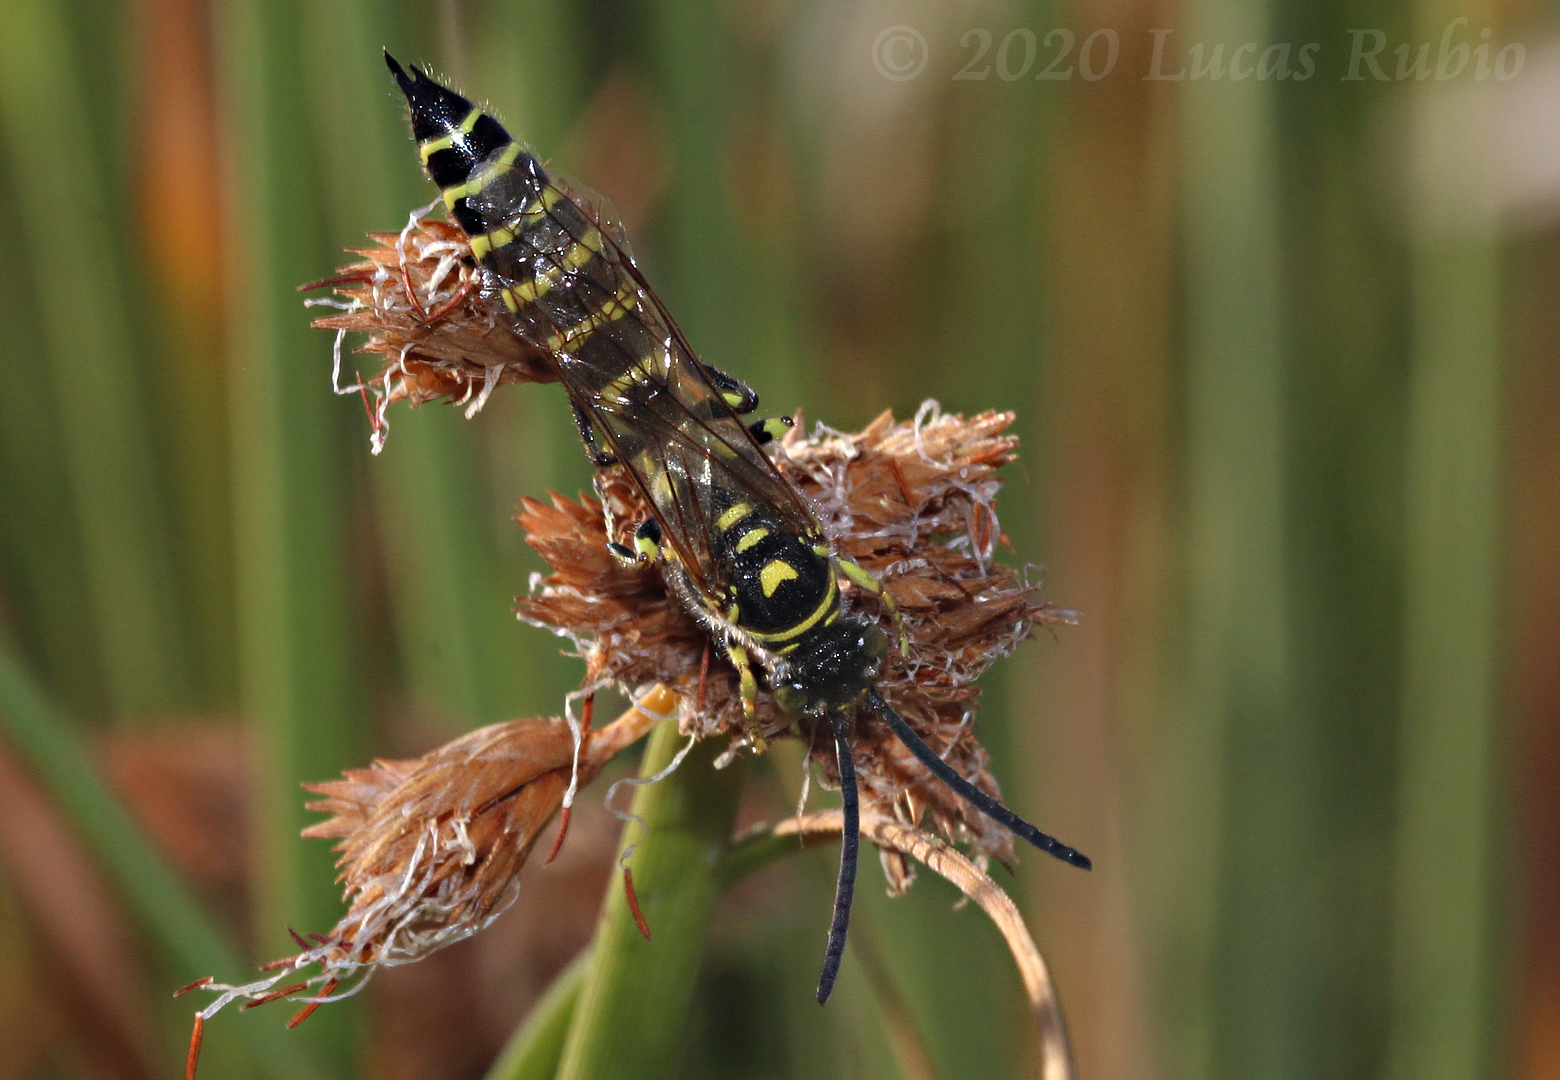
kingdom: Animalia
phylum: Arthropoda
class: Insecta
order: Hymenoptera
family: Tiphiidae
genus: Myzinum
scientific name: Myzinum
